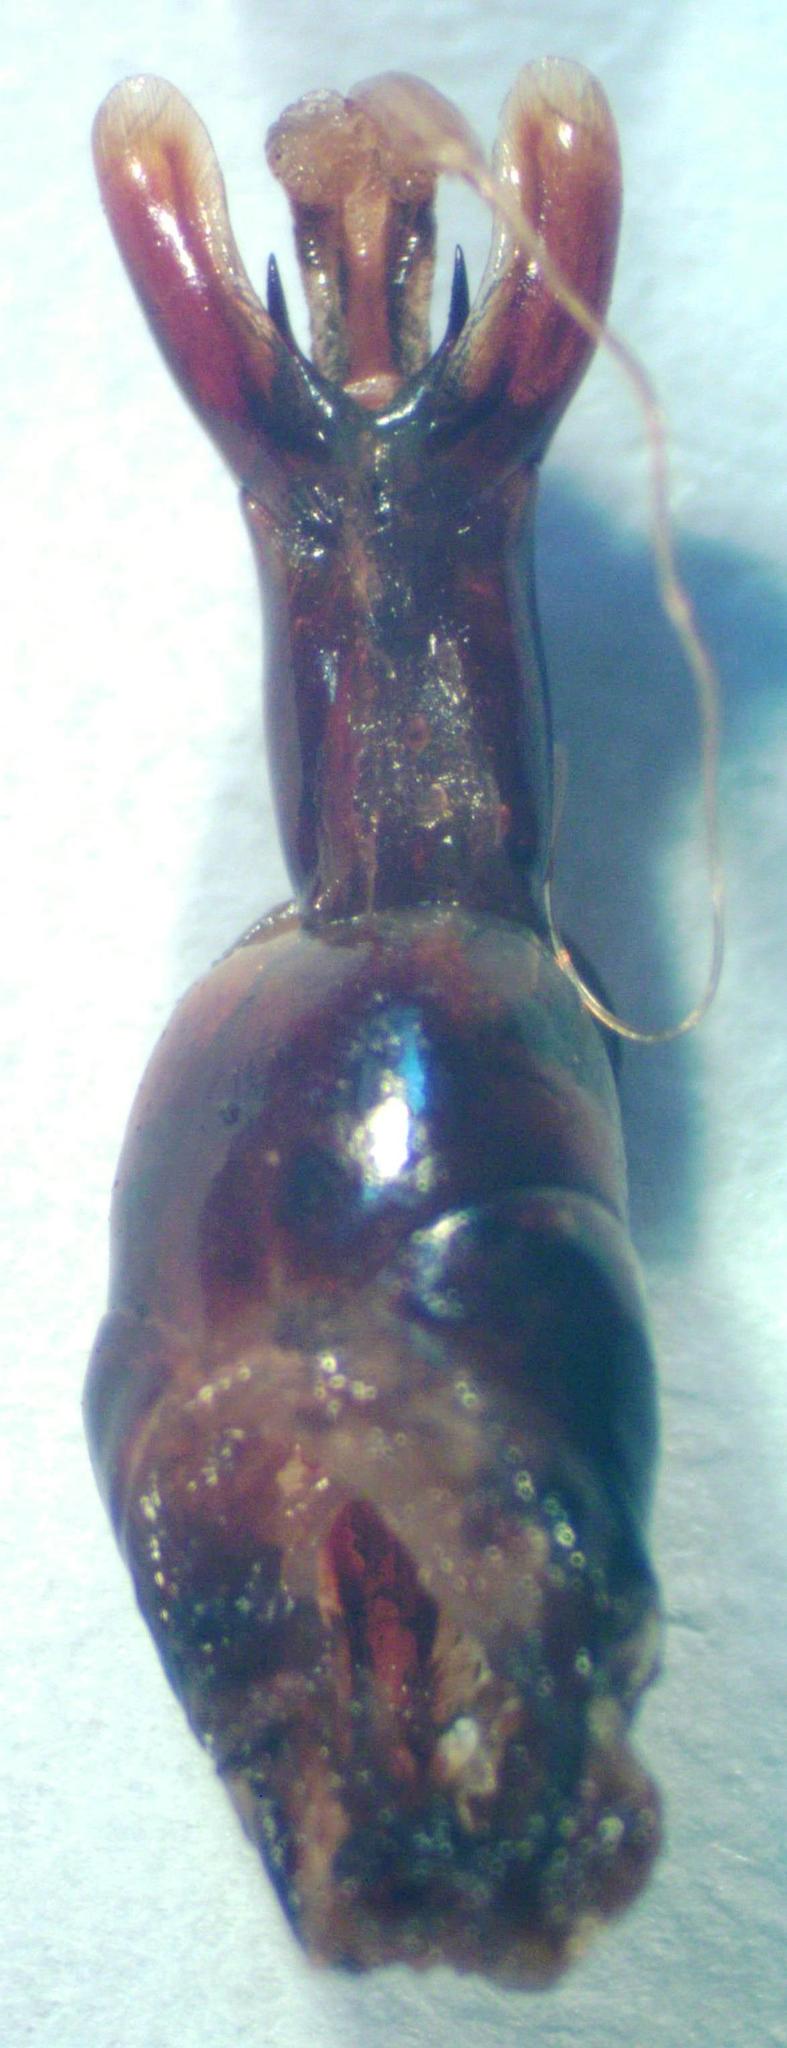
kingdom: Animalia
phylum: Arthropoda
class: Insecta
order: Coleoptera
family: Lucanidae
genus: Dorcus
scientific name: Dorcus daedalion
